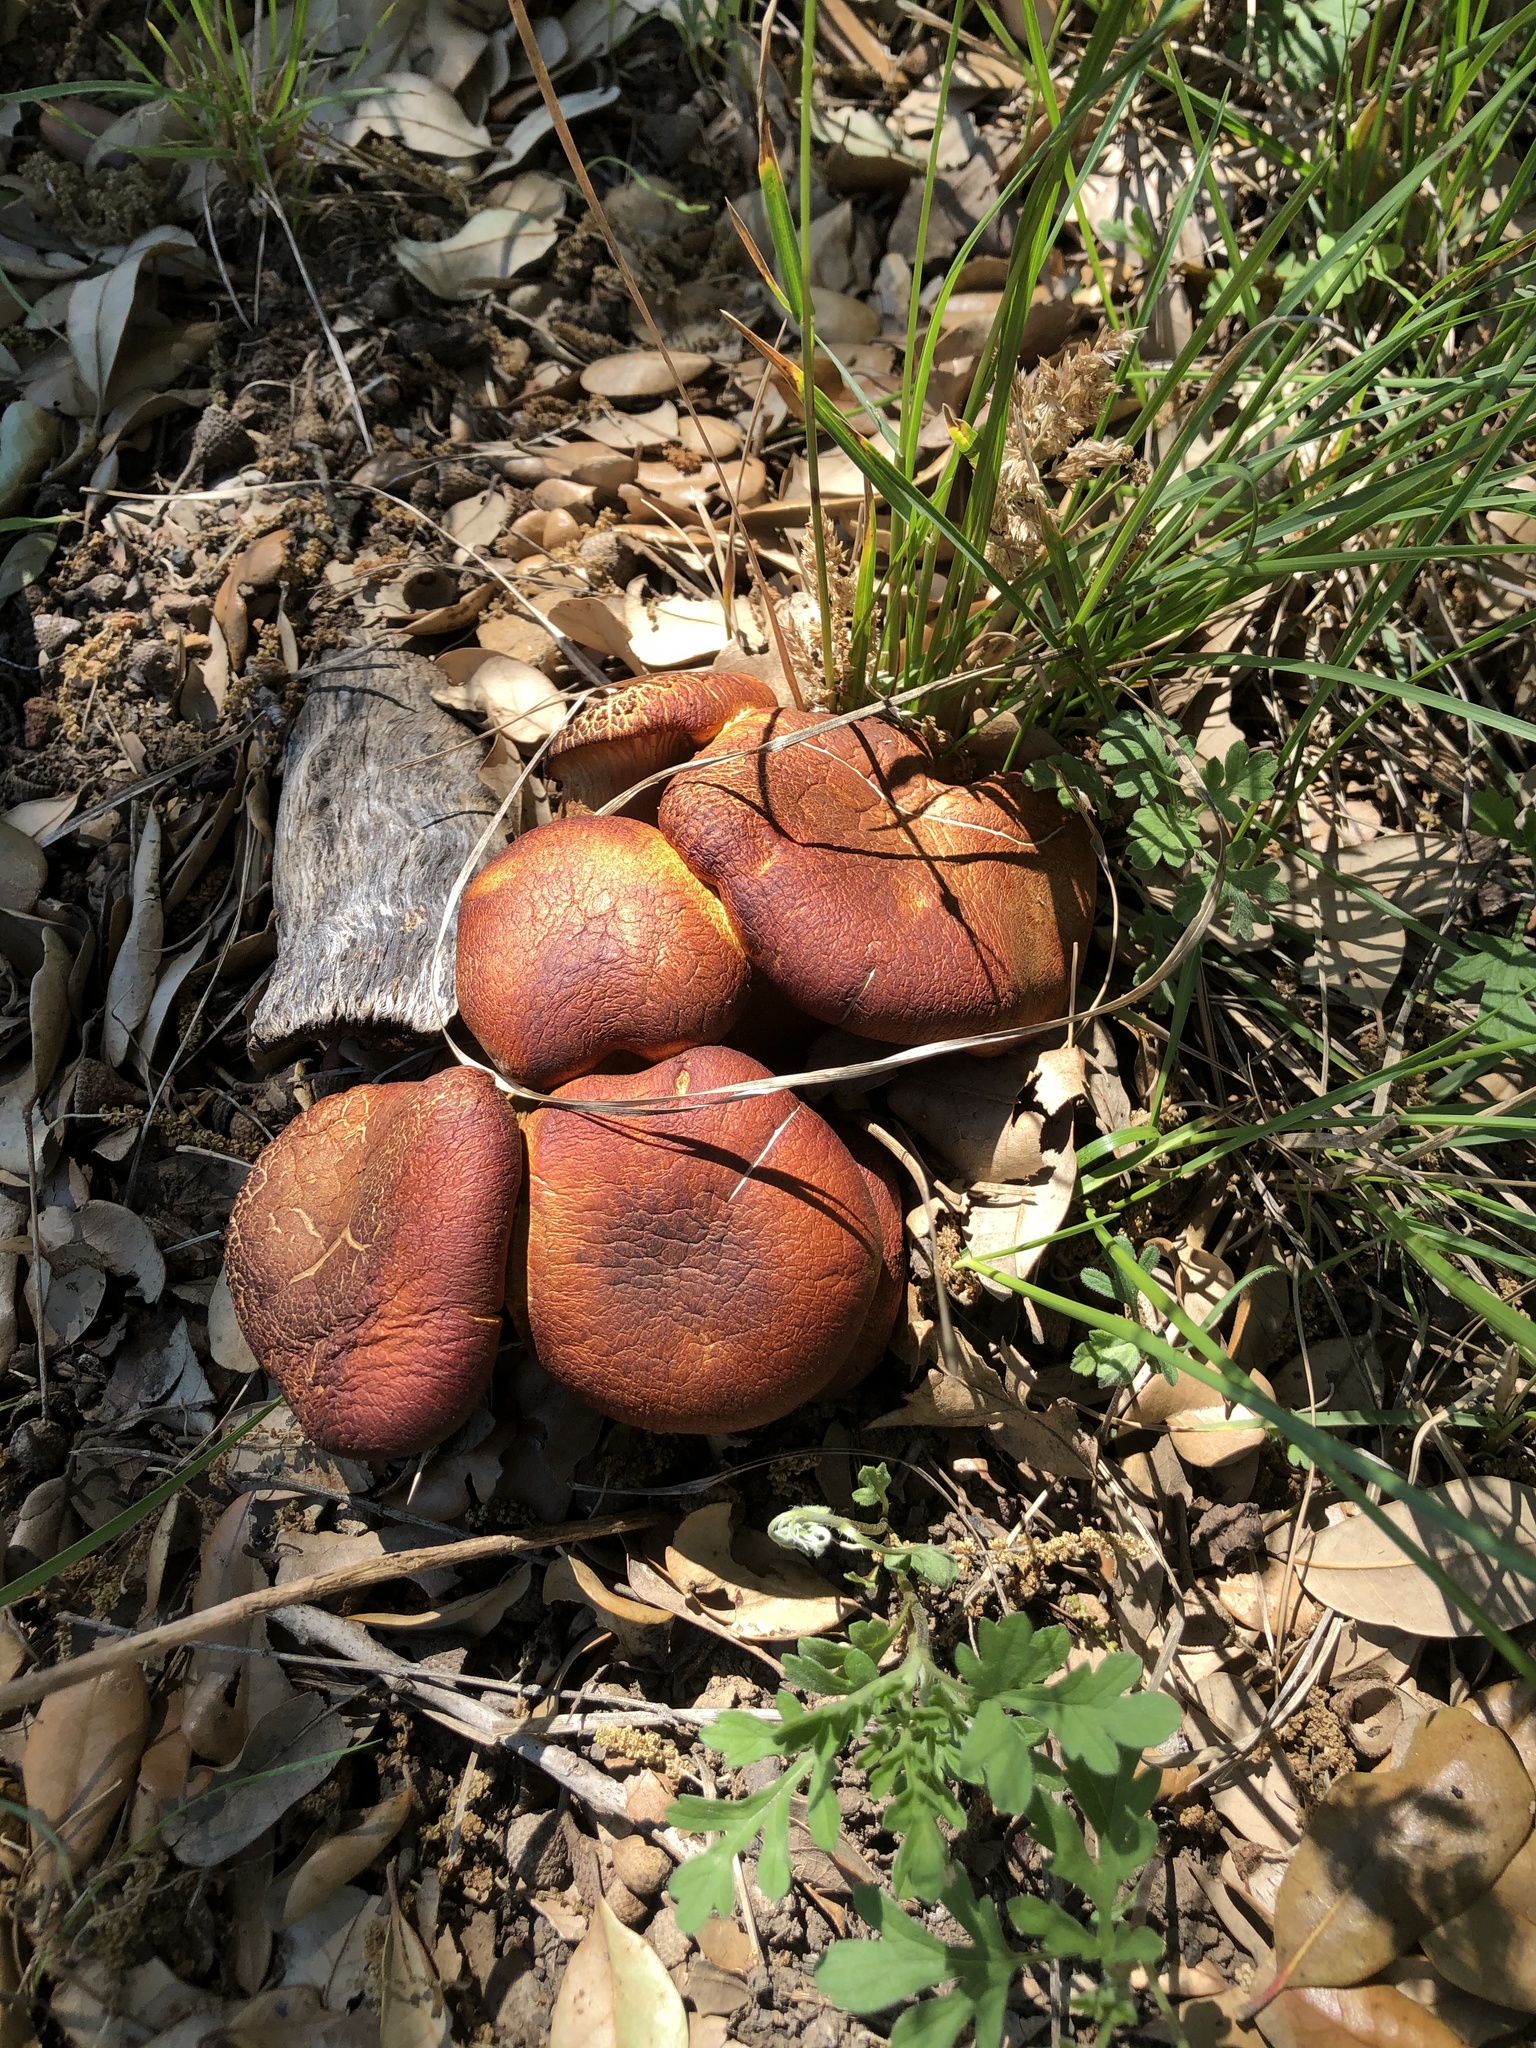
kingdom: Fungi
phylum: Basidiomycota
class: Agaricomycetes
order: Agaricales
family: Omphalotaceae
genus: Omphalotus
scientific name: Omphalotus subilludens
